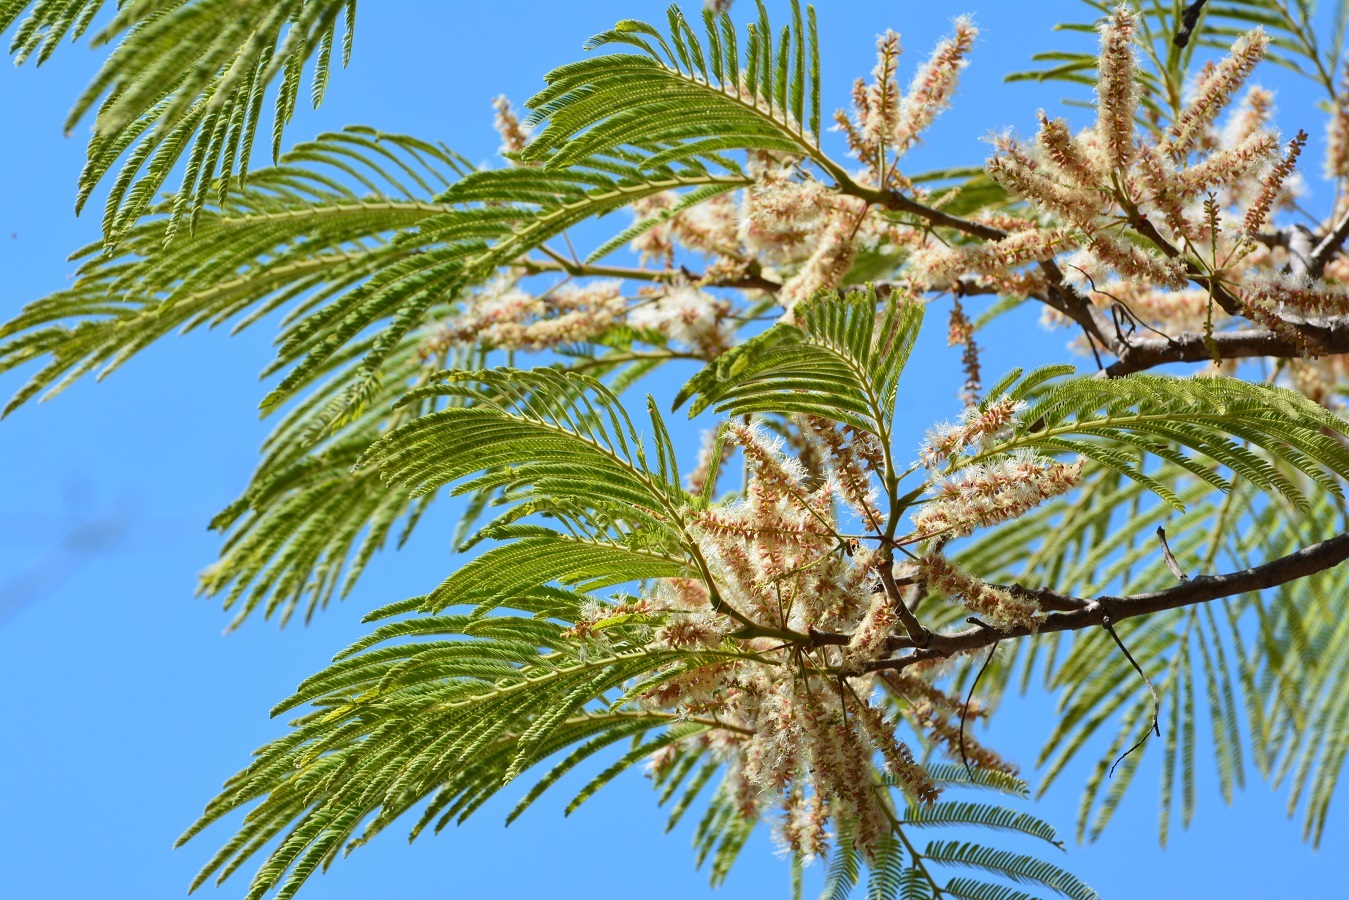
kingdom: Plantae
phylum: Tracheophyta
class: Magnoliopsida
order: Fabales
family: Fabaceae
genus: Lysiloma
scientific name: Lysiloma acapulcense
